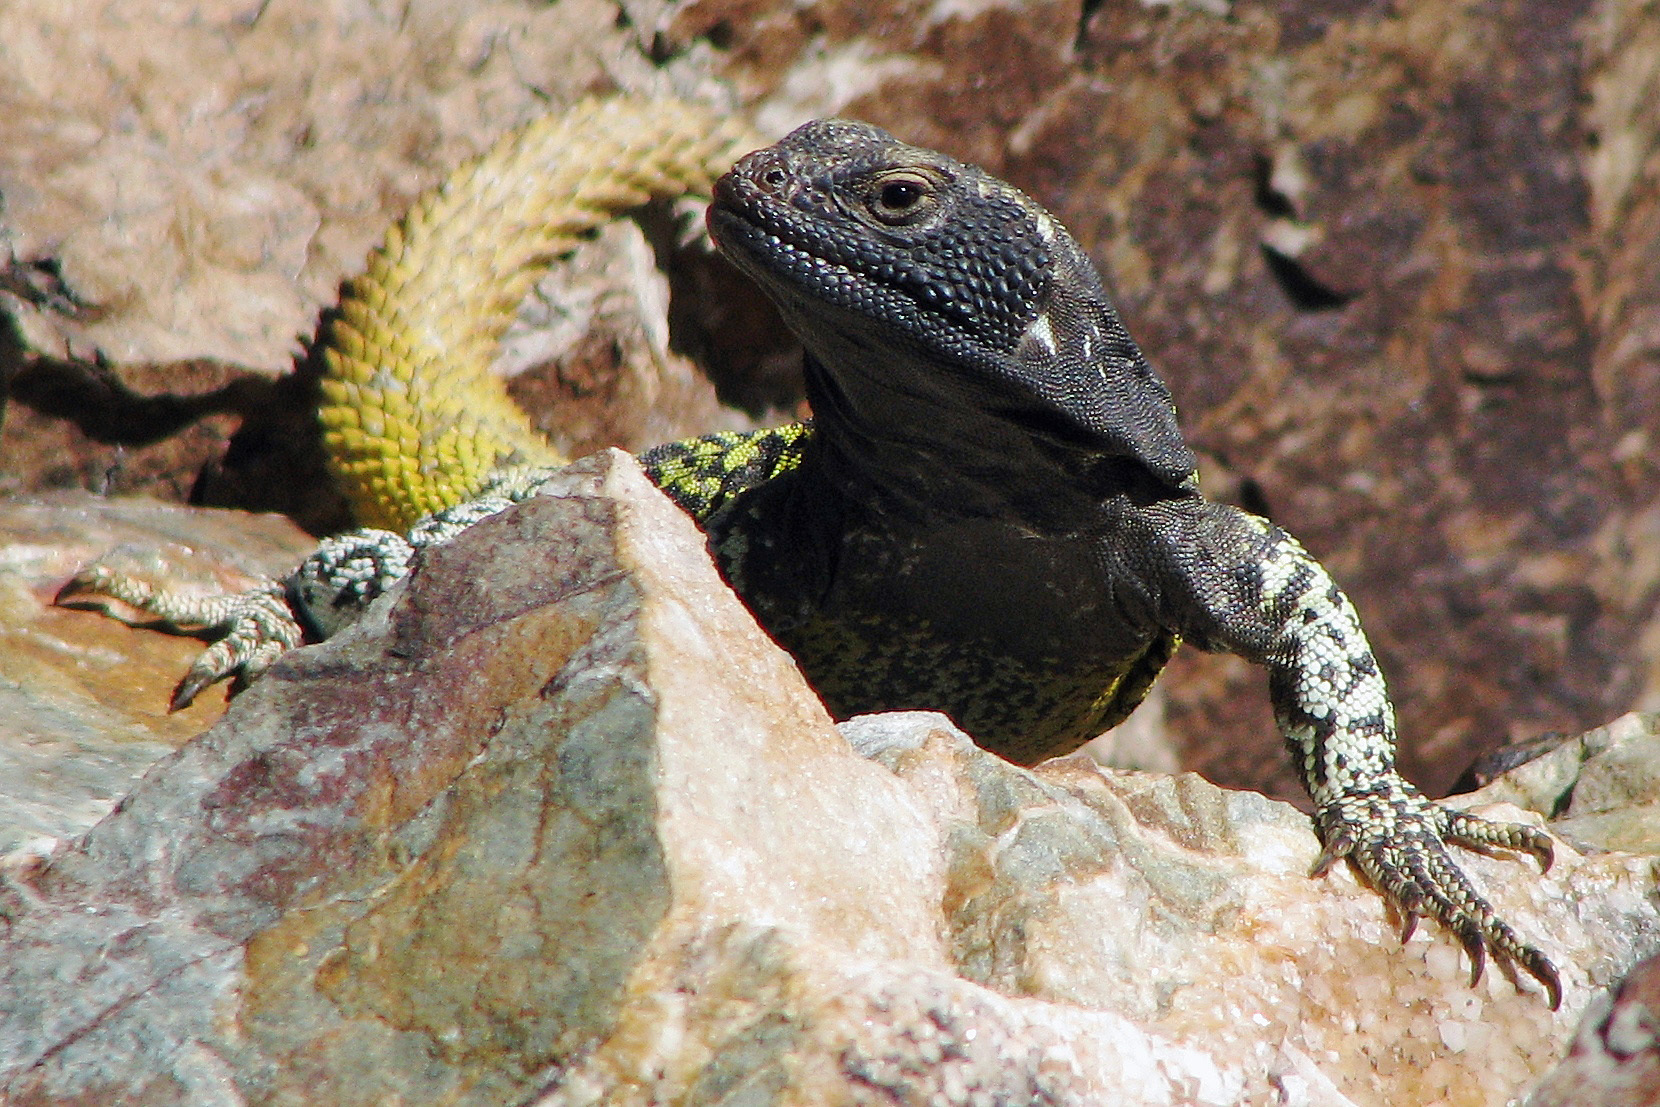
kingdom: Animalia
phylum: Chordata
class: Squamata
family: Liolaemidae
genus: Phymaturus
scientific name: Phymaturus palluma
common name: High mountain lizard
